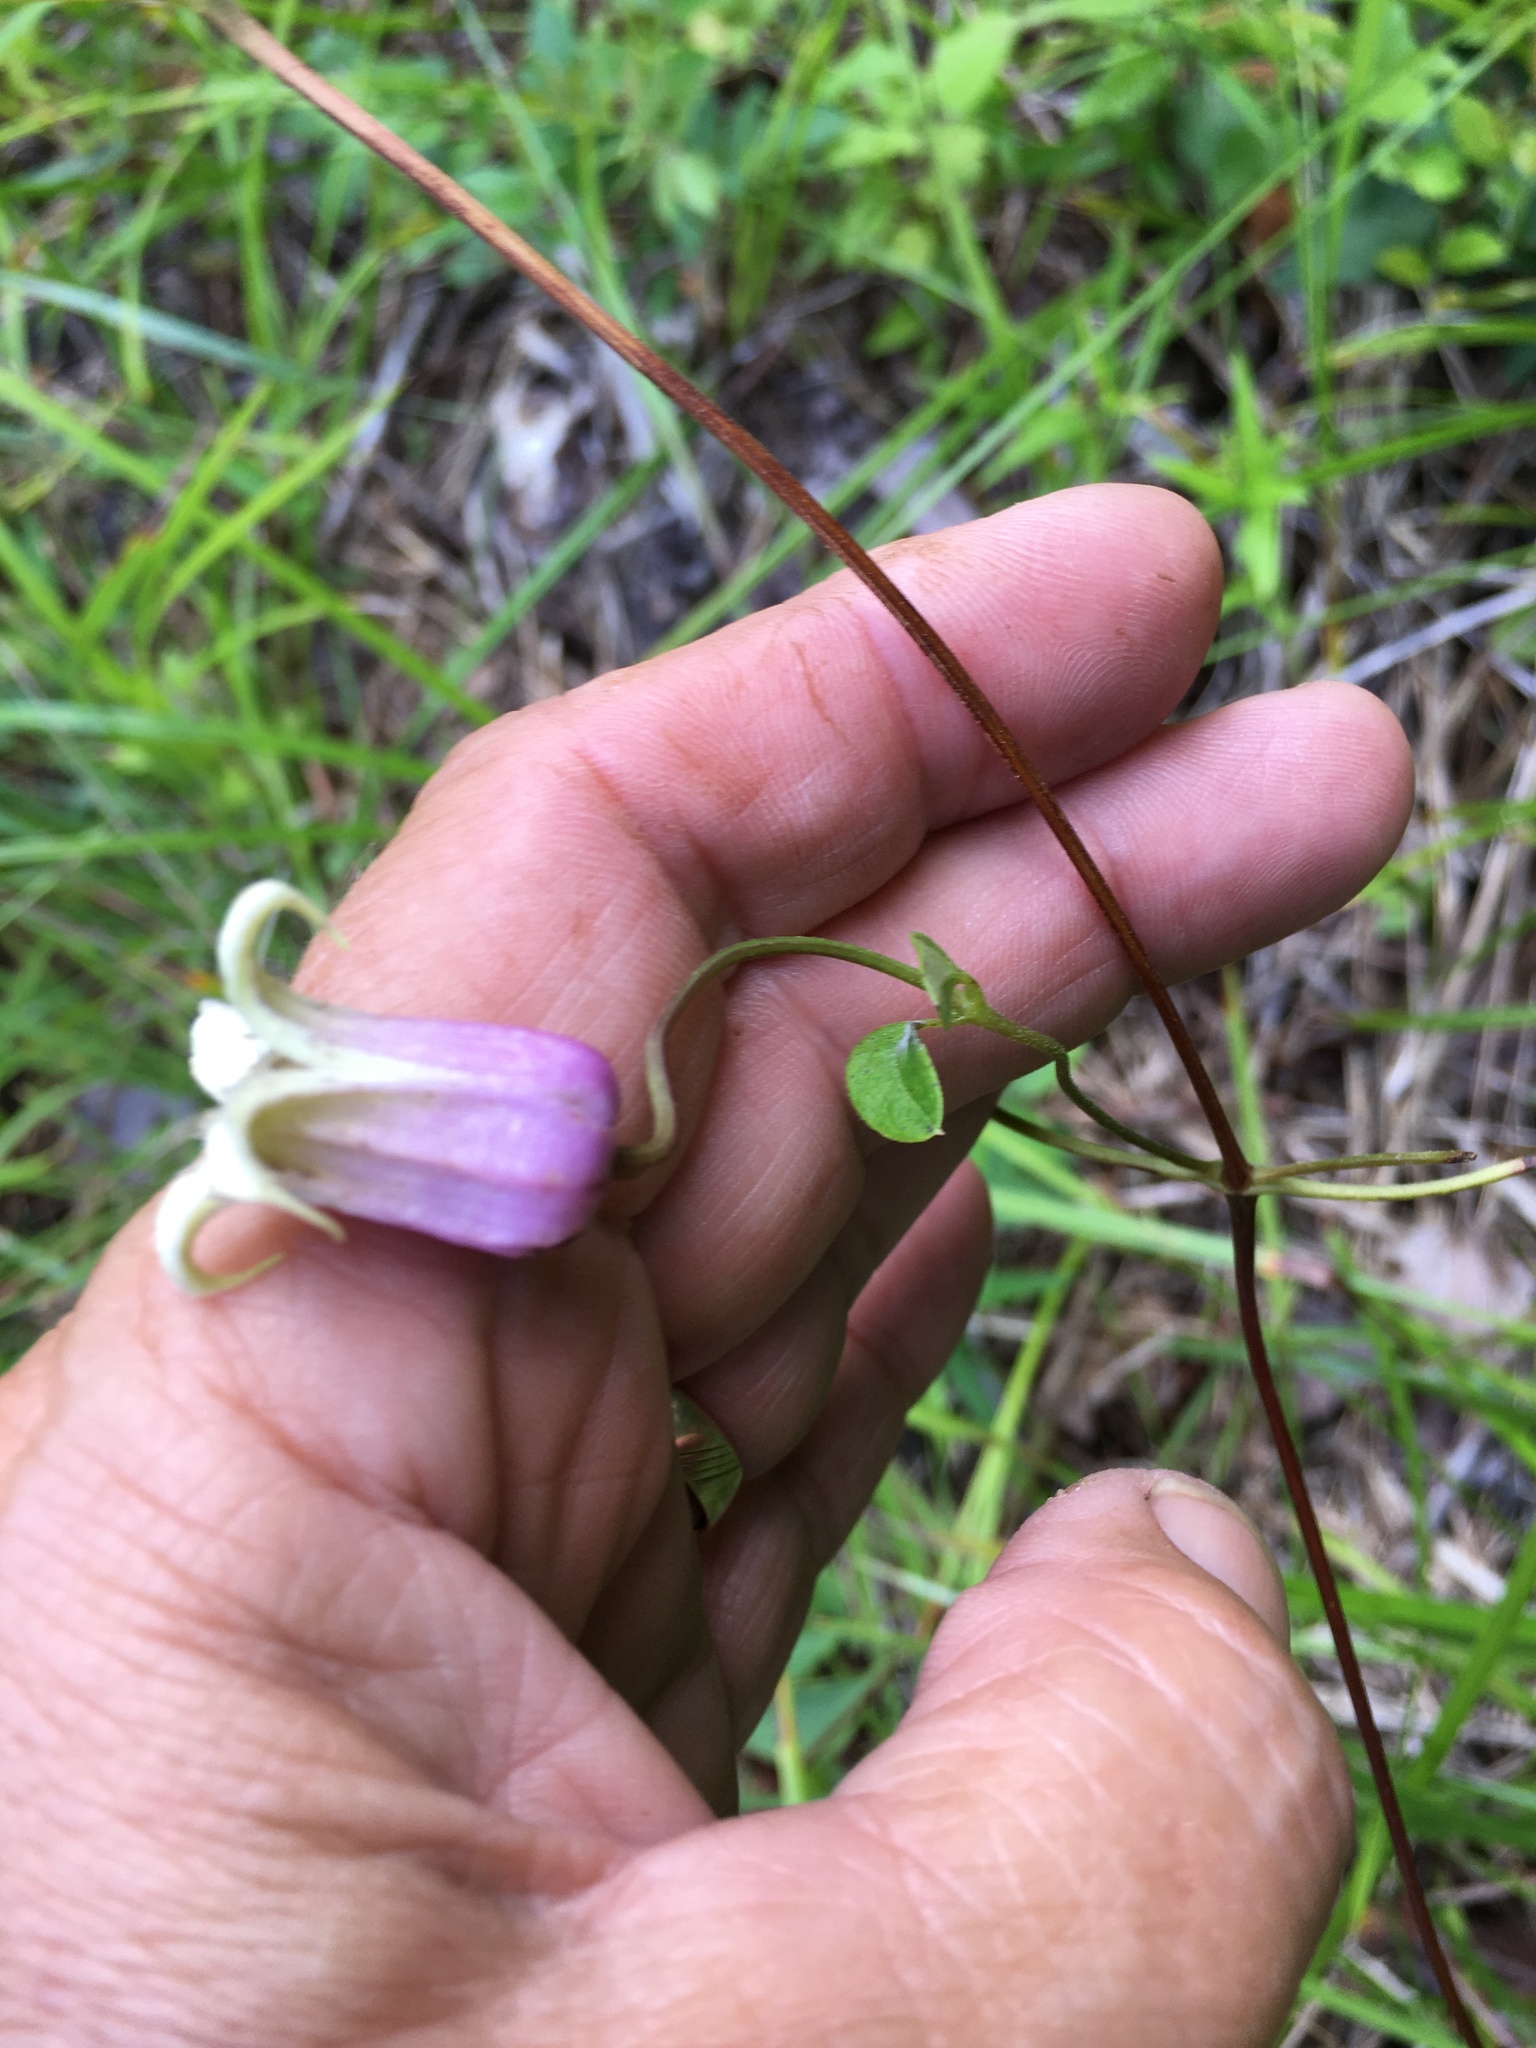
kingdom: Plantae
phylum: Tracheophyta
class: Magnoliopsida
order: Ranunculales
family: Ranunculaceae
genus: Clematis
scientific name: Clematis viorna
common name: Leather-flower
